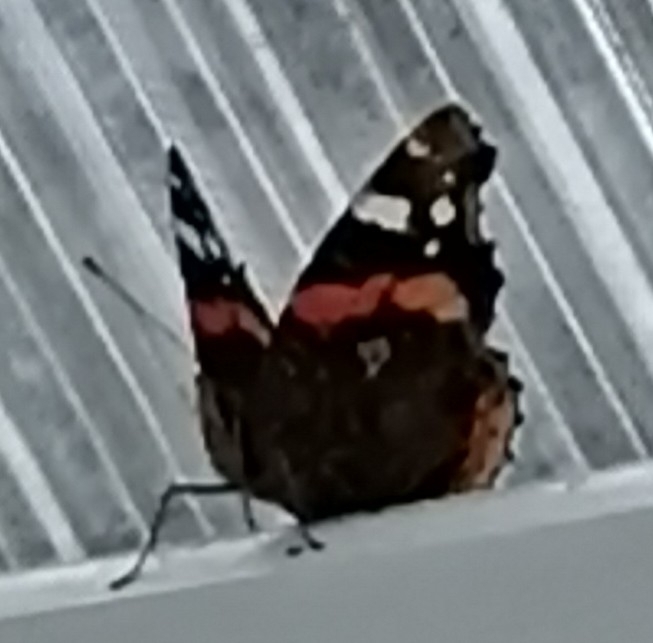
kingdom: Animalia
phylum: Arthropoda
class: Insecta
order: Lepidoptera
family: Nymphalidae
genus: Vanessa
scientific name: Vanessa atalanta
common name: Red admiral
